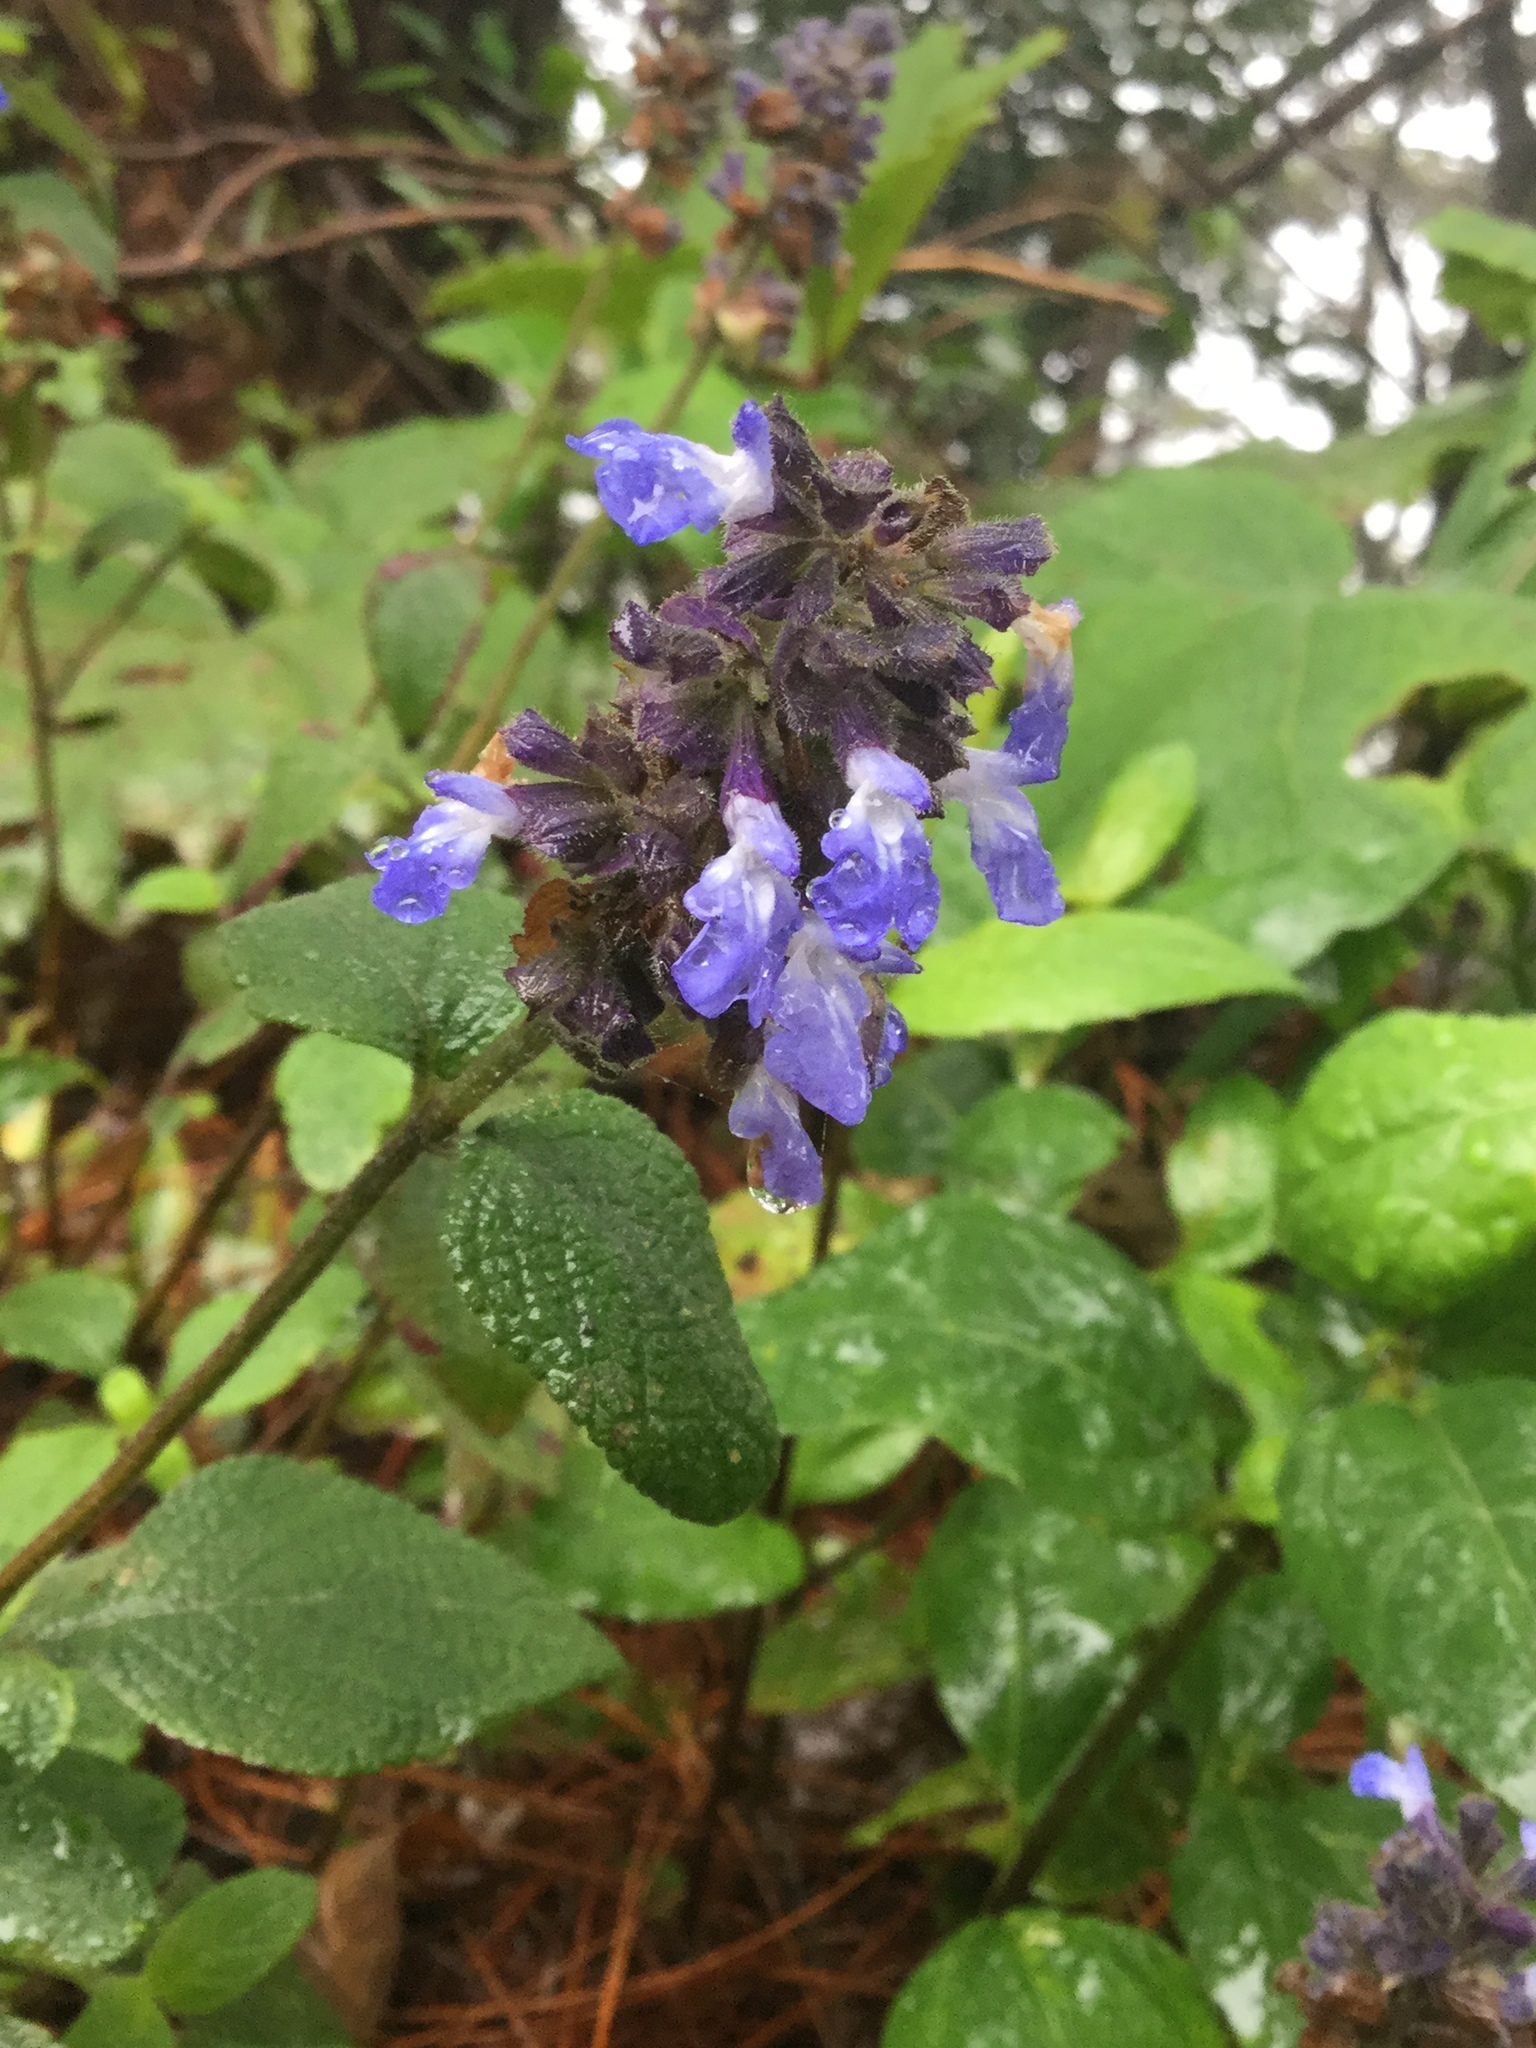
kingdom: Plantae
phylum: Tracheophyta
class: Magnoliopsida
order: Lamiales
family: Lamiaceae
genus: Salvia
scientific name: Salvia mocinoi
